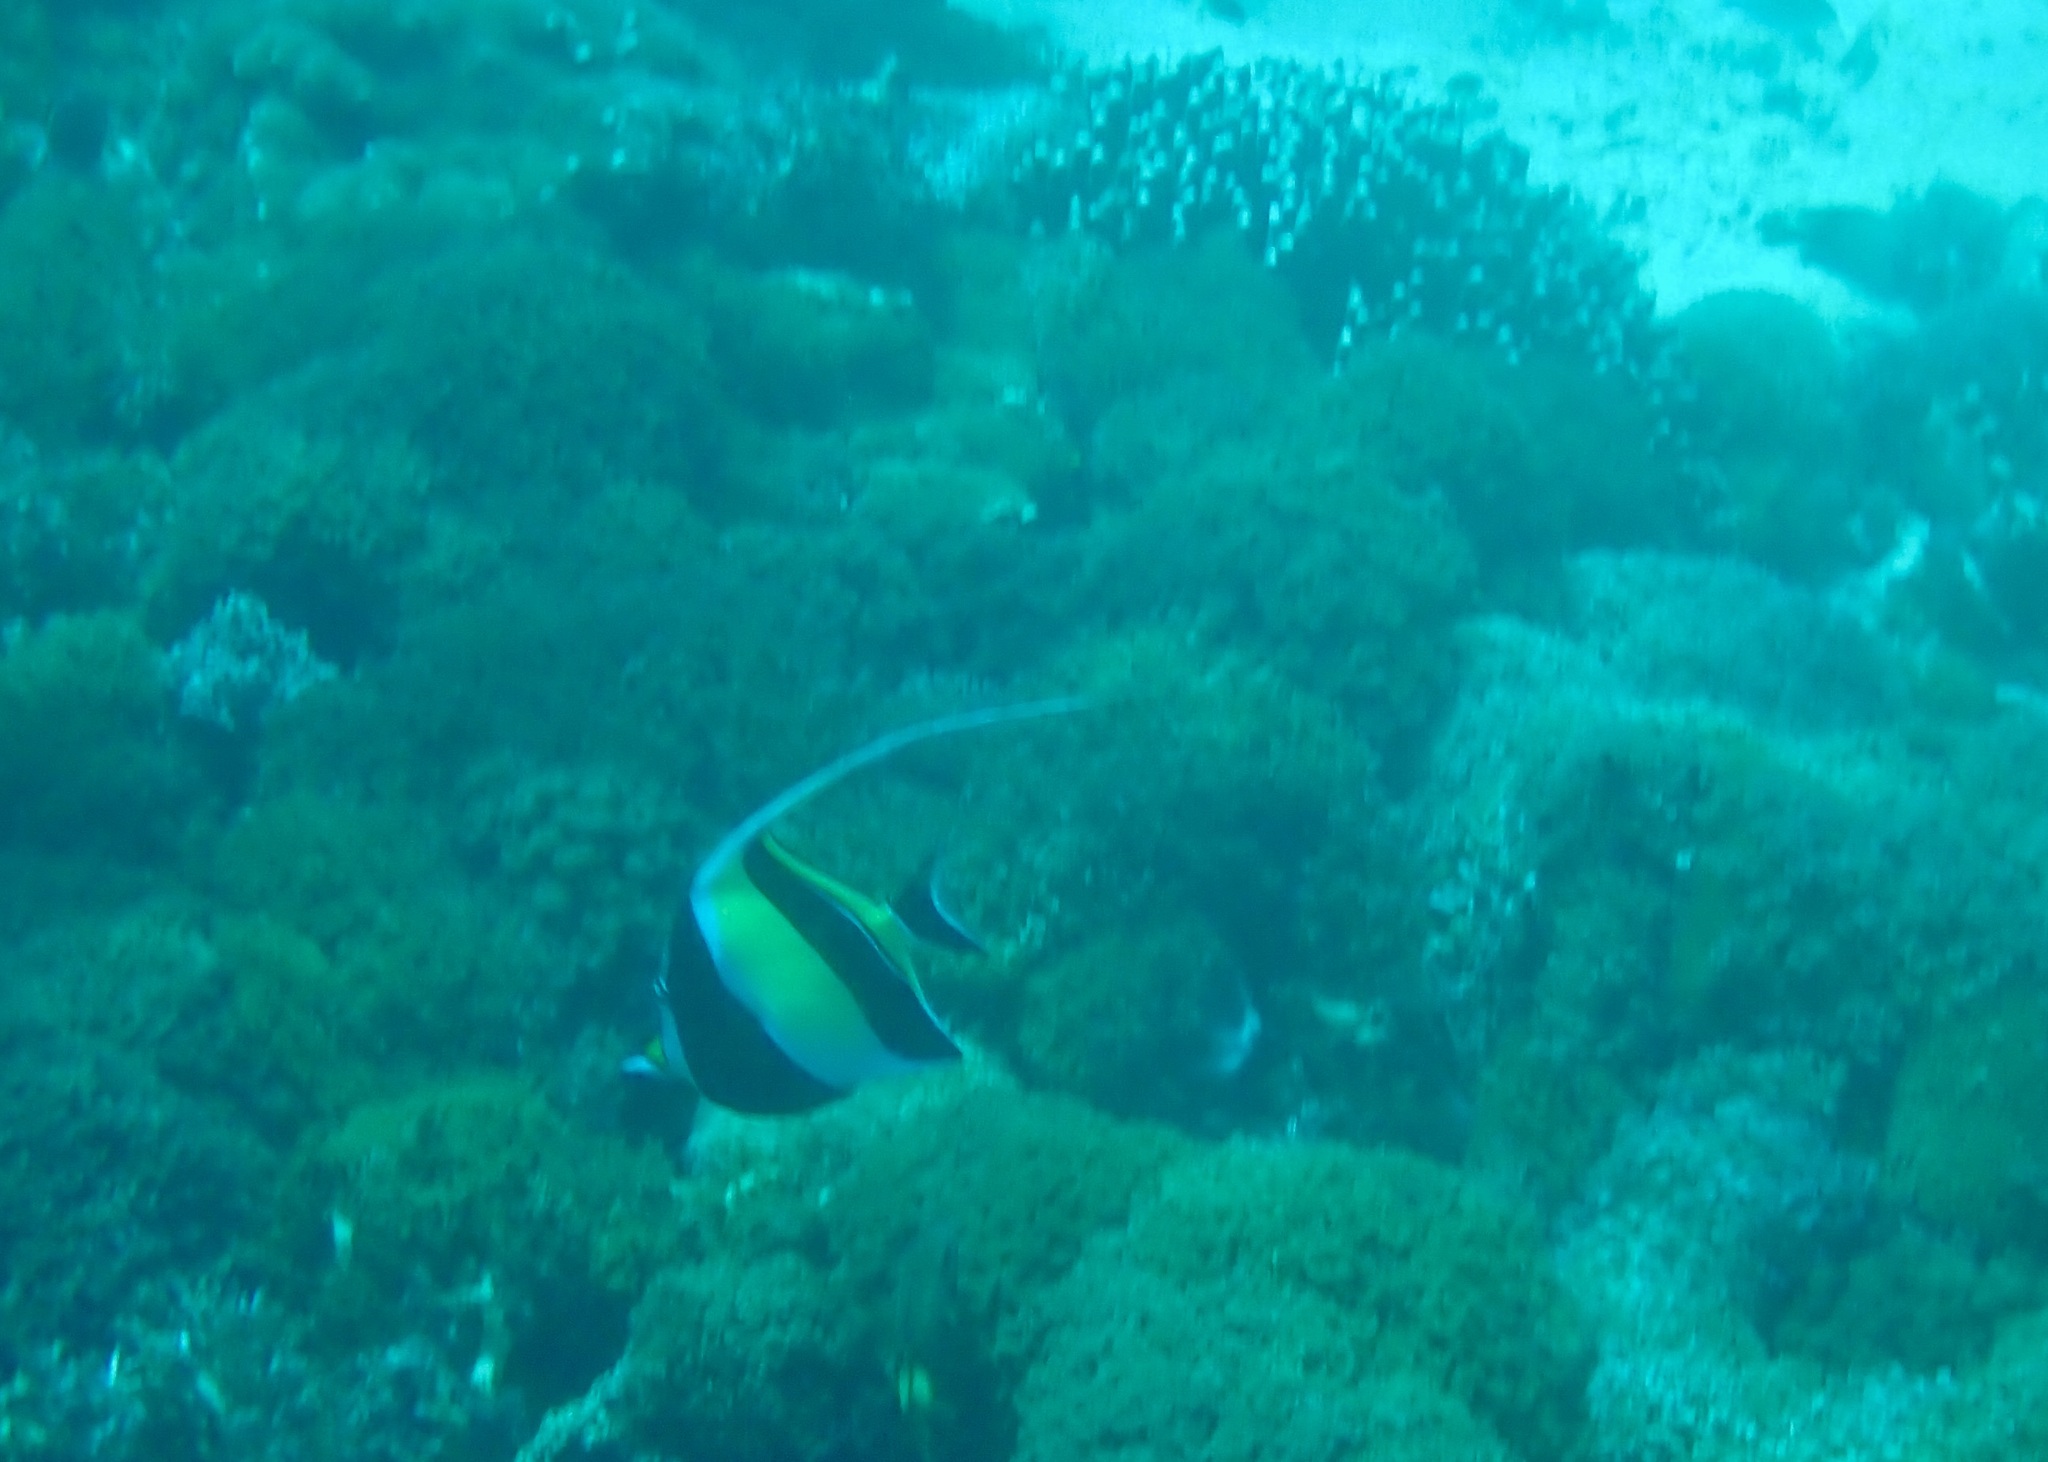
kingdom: Animalia
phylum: Chordata
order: Perciformes
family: Zanclidae
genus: Zanclus
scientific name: Zanclus cornutus
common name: Moorish idol
